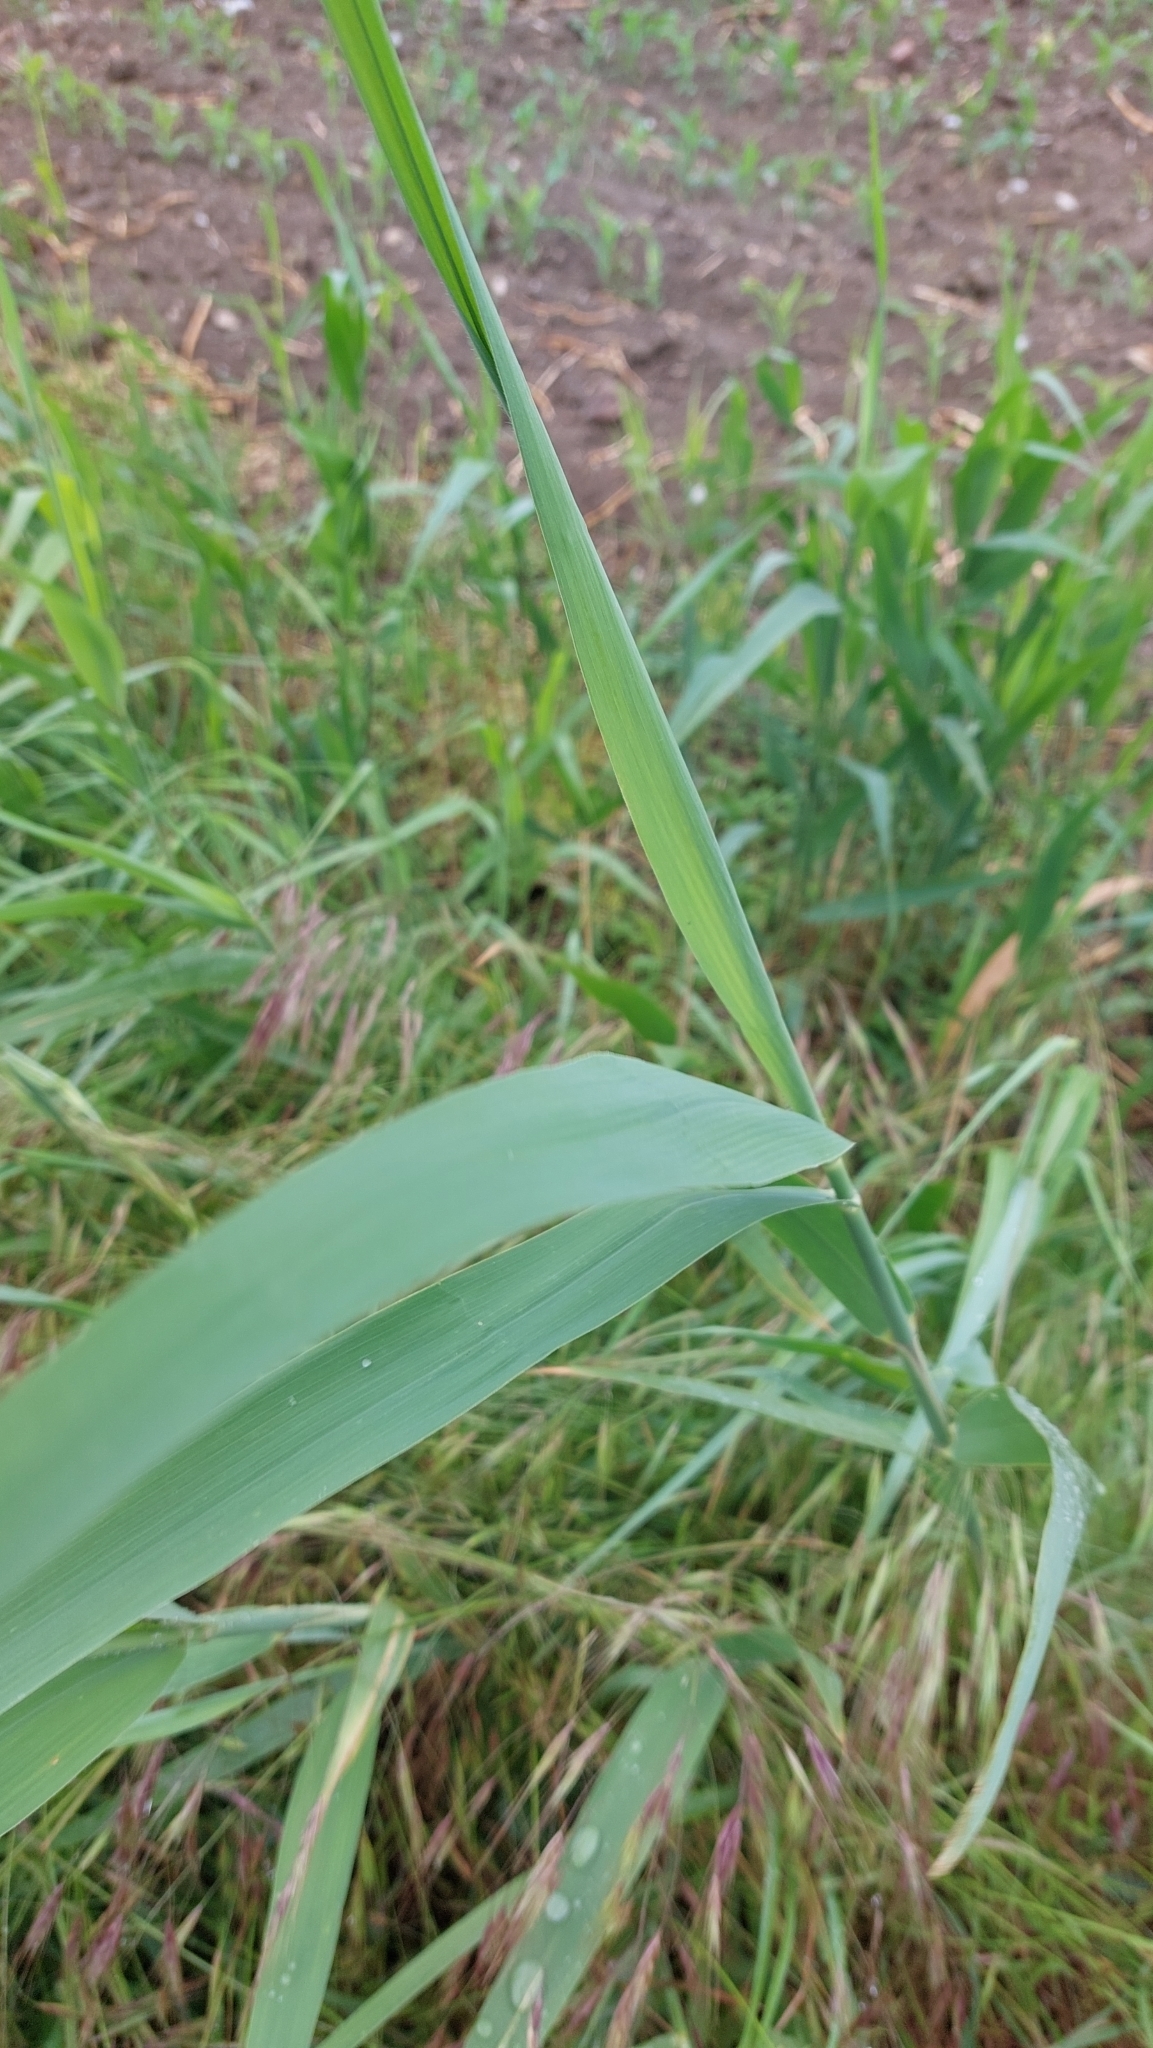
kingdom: Plantae
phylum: Tracheophyta
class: Liliopsida
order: Poales
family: Poaceae
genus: Phragmites
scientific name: Phragmites australis
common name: Common reed
